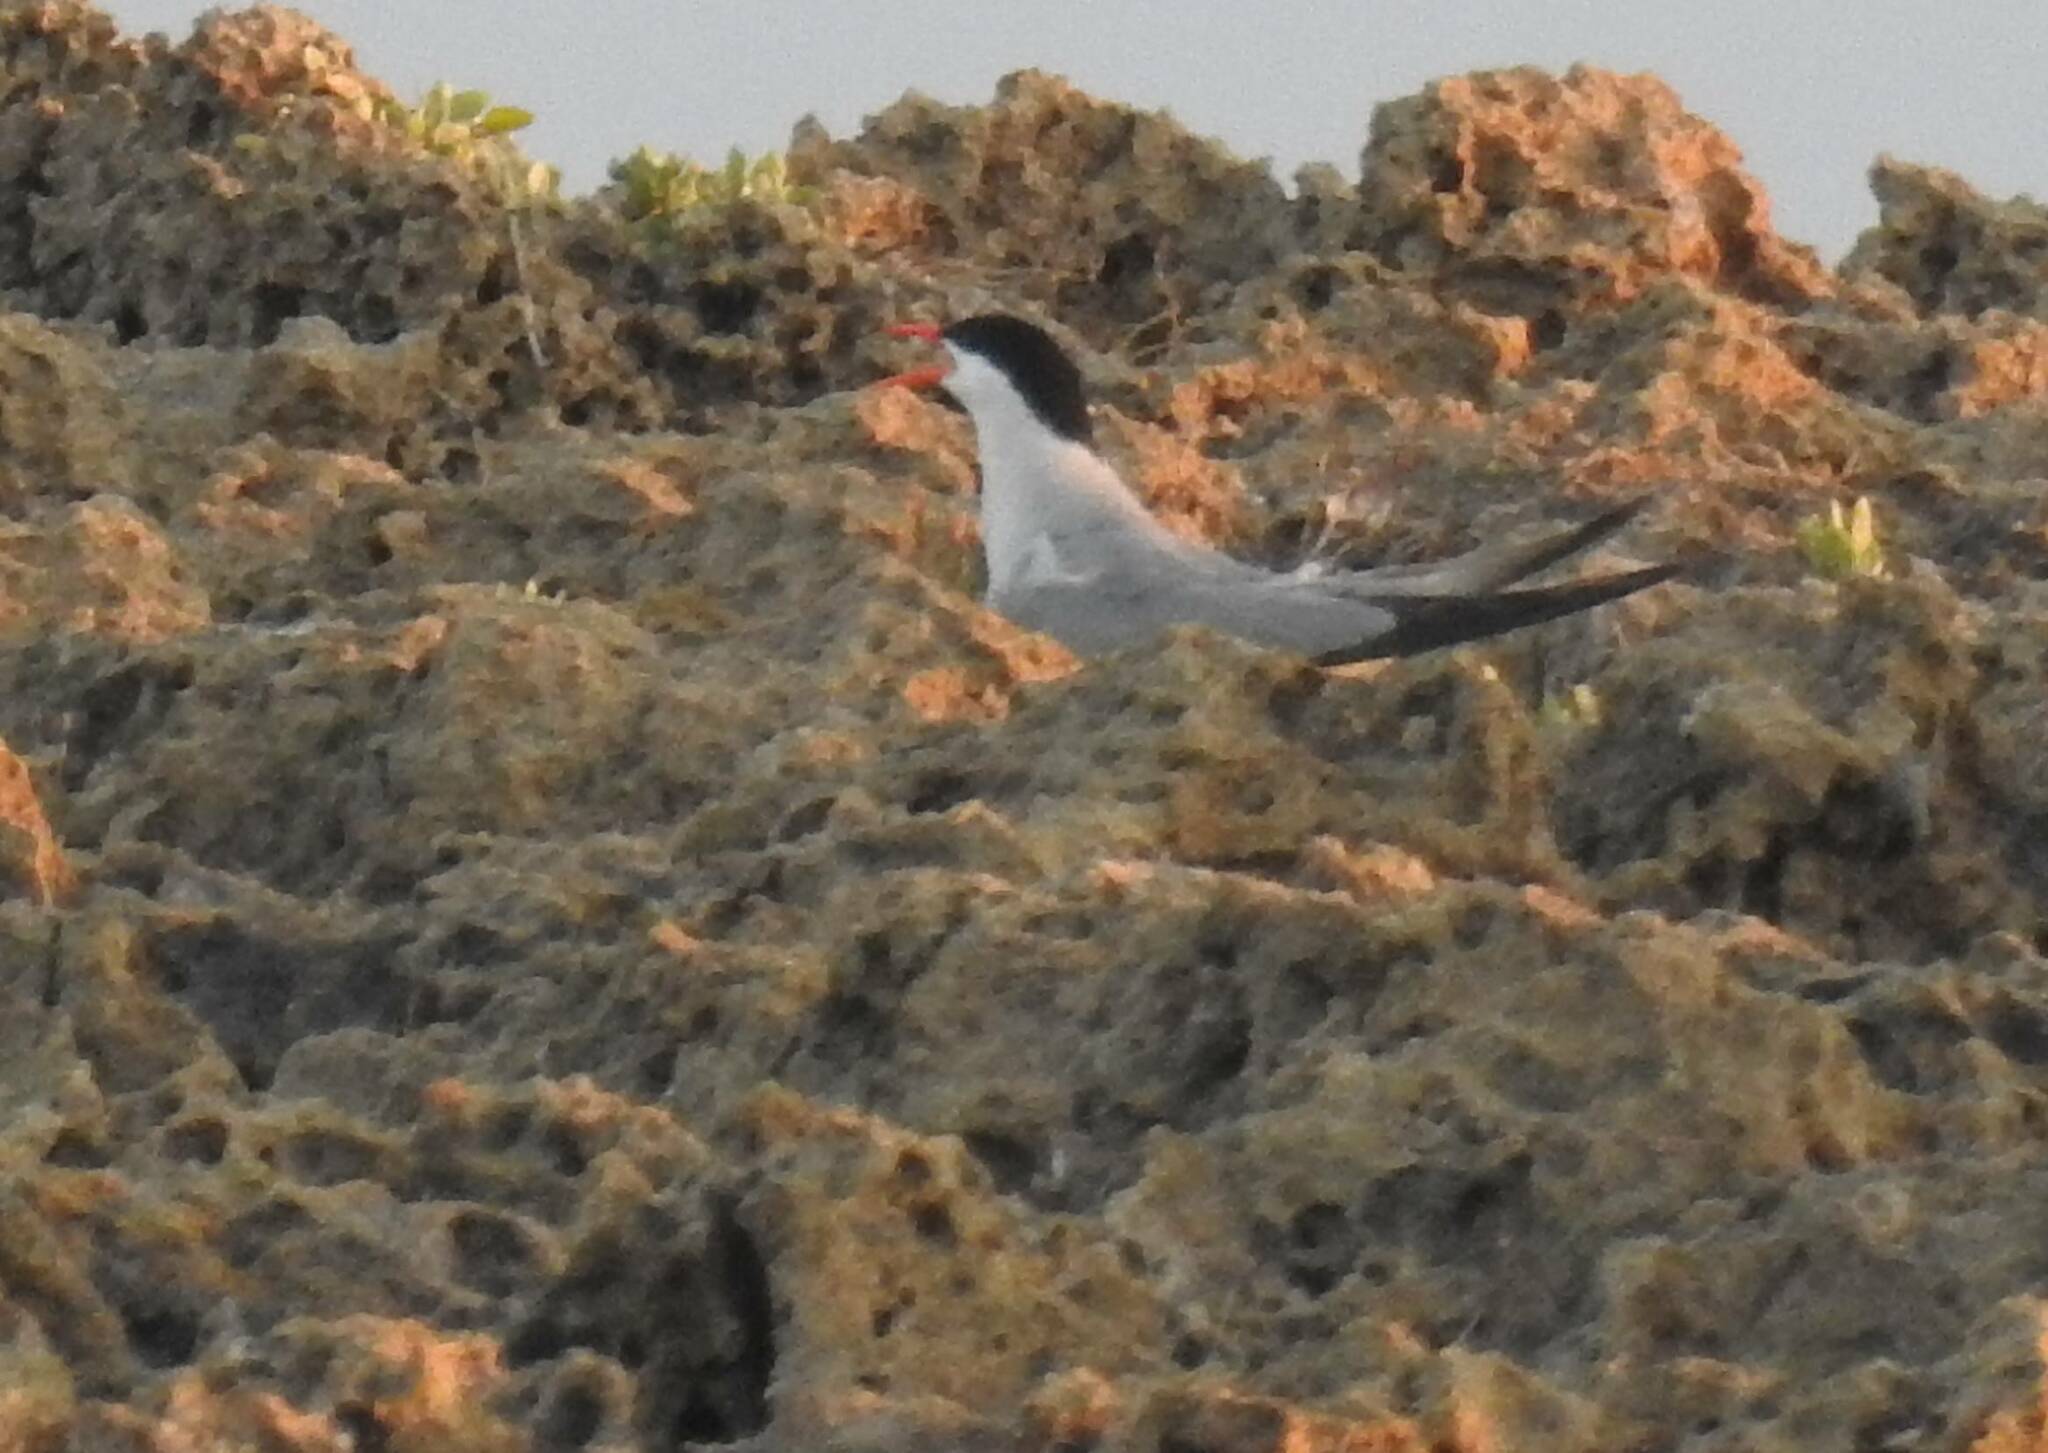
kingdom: Animalia
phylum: Chordata
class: Aves
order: Charadriiformes
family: Laridae
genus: Sterna
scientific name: Sterna hirundo
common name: Common tern
